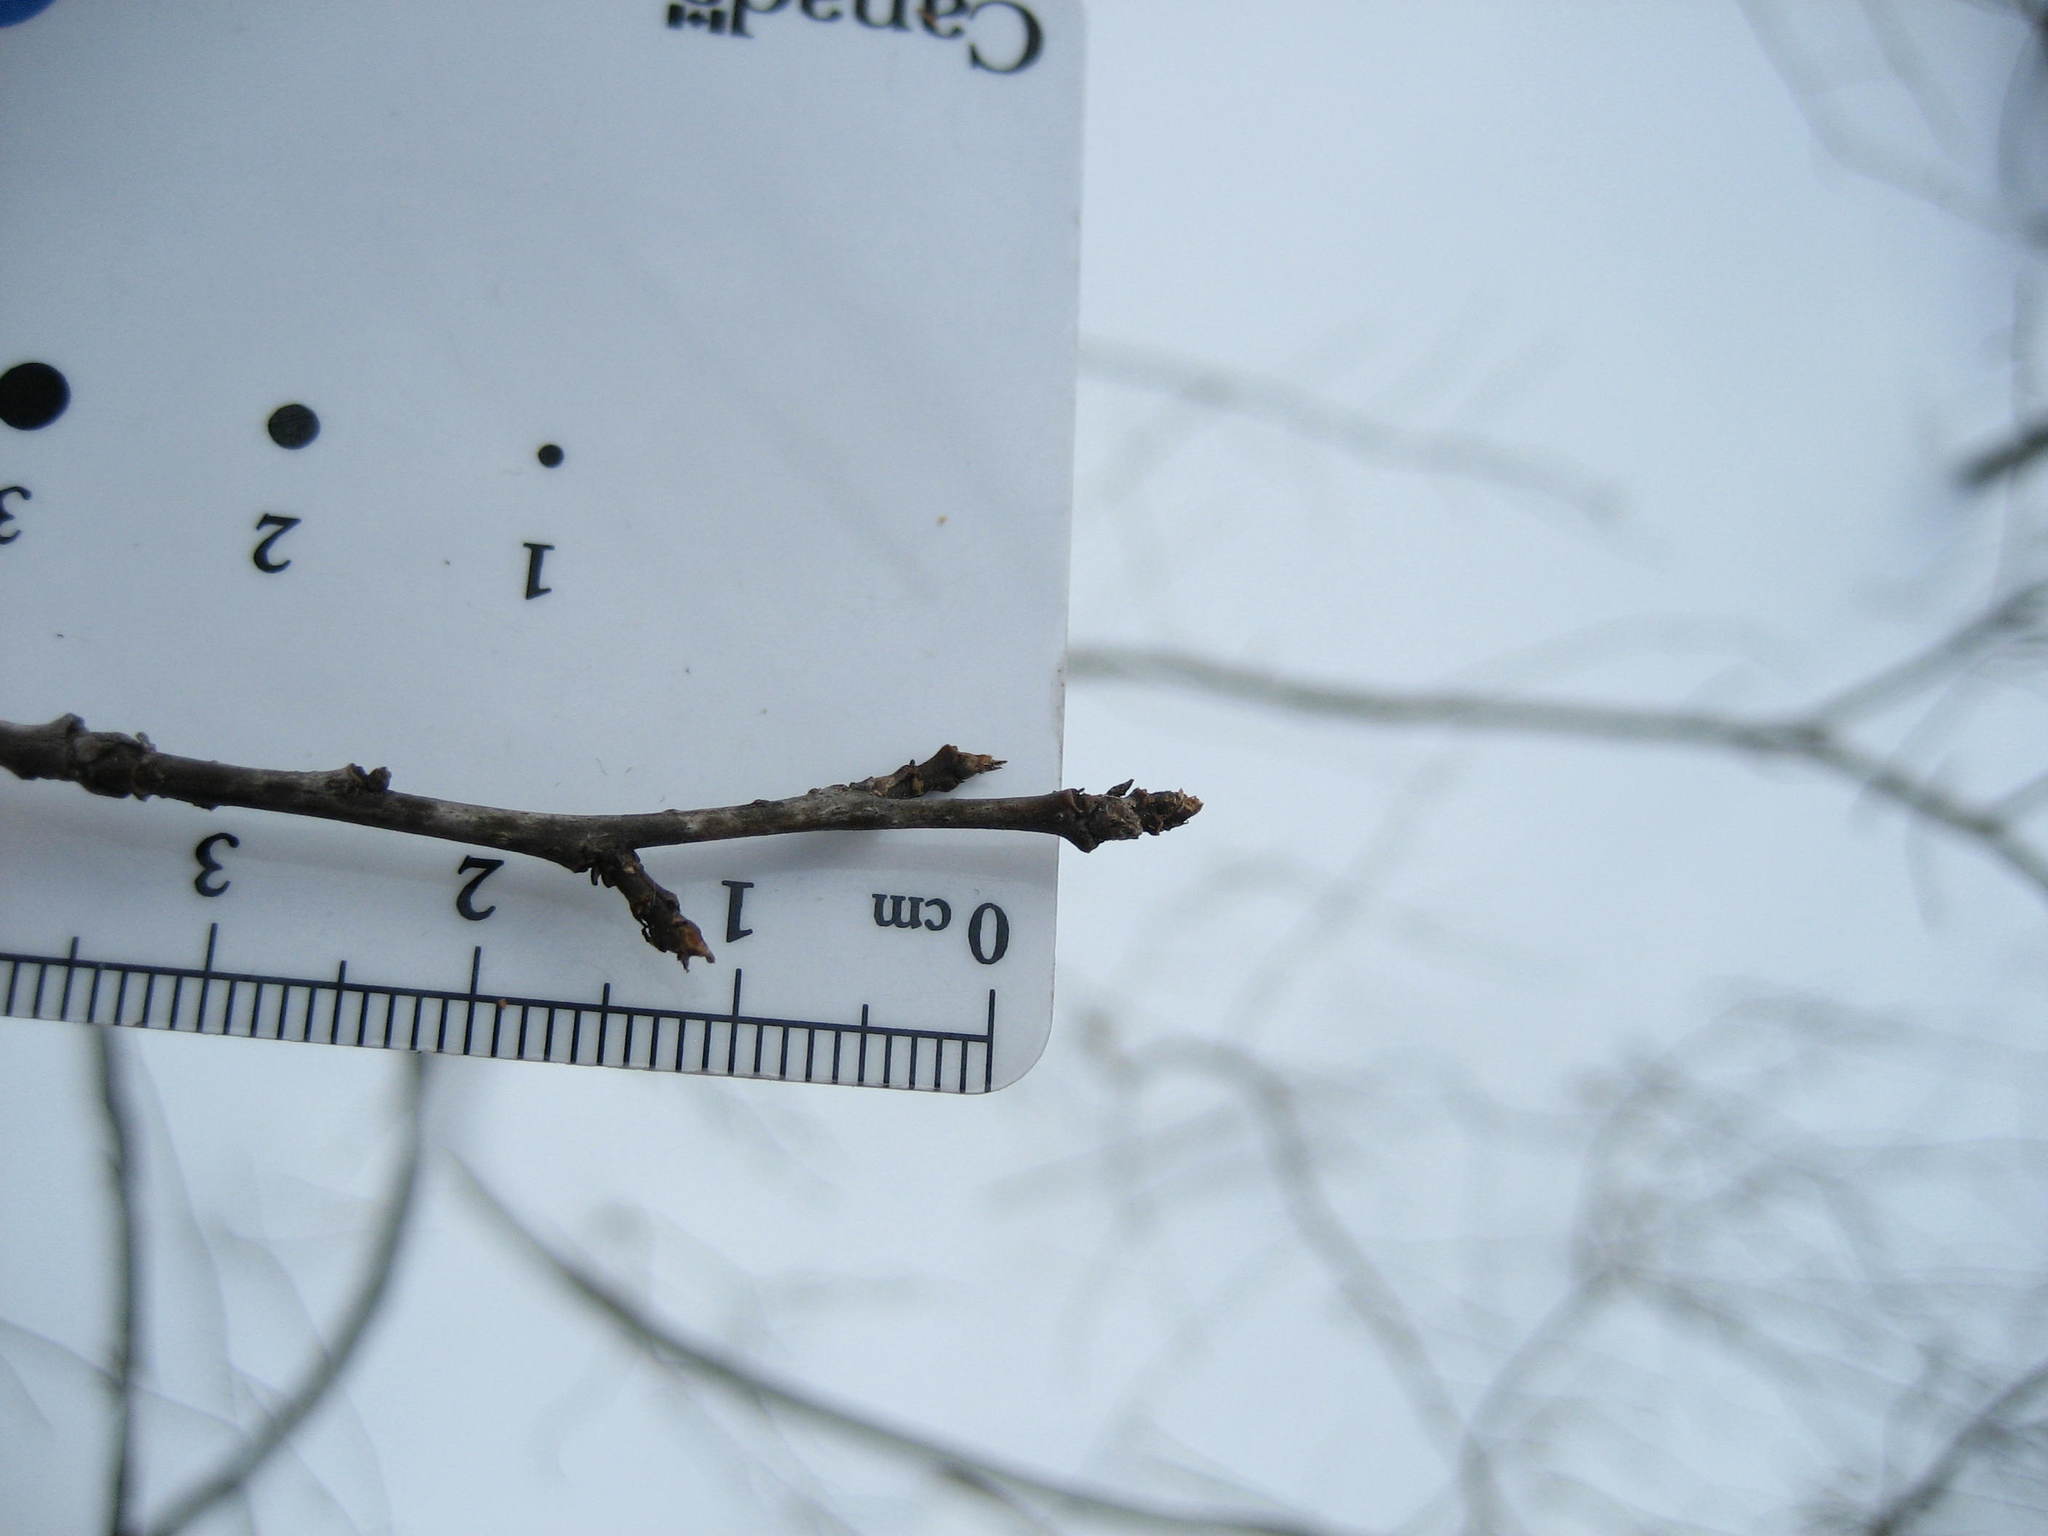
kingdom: Plantae
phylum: Tracheophyta
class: Magnoliopsida
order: Aquifoliales
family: Aquifoliaceae
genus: Ilex
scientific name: Ilex verticillata
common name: Virginia winterberry
